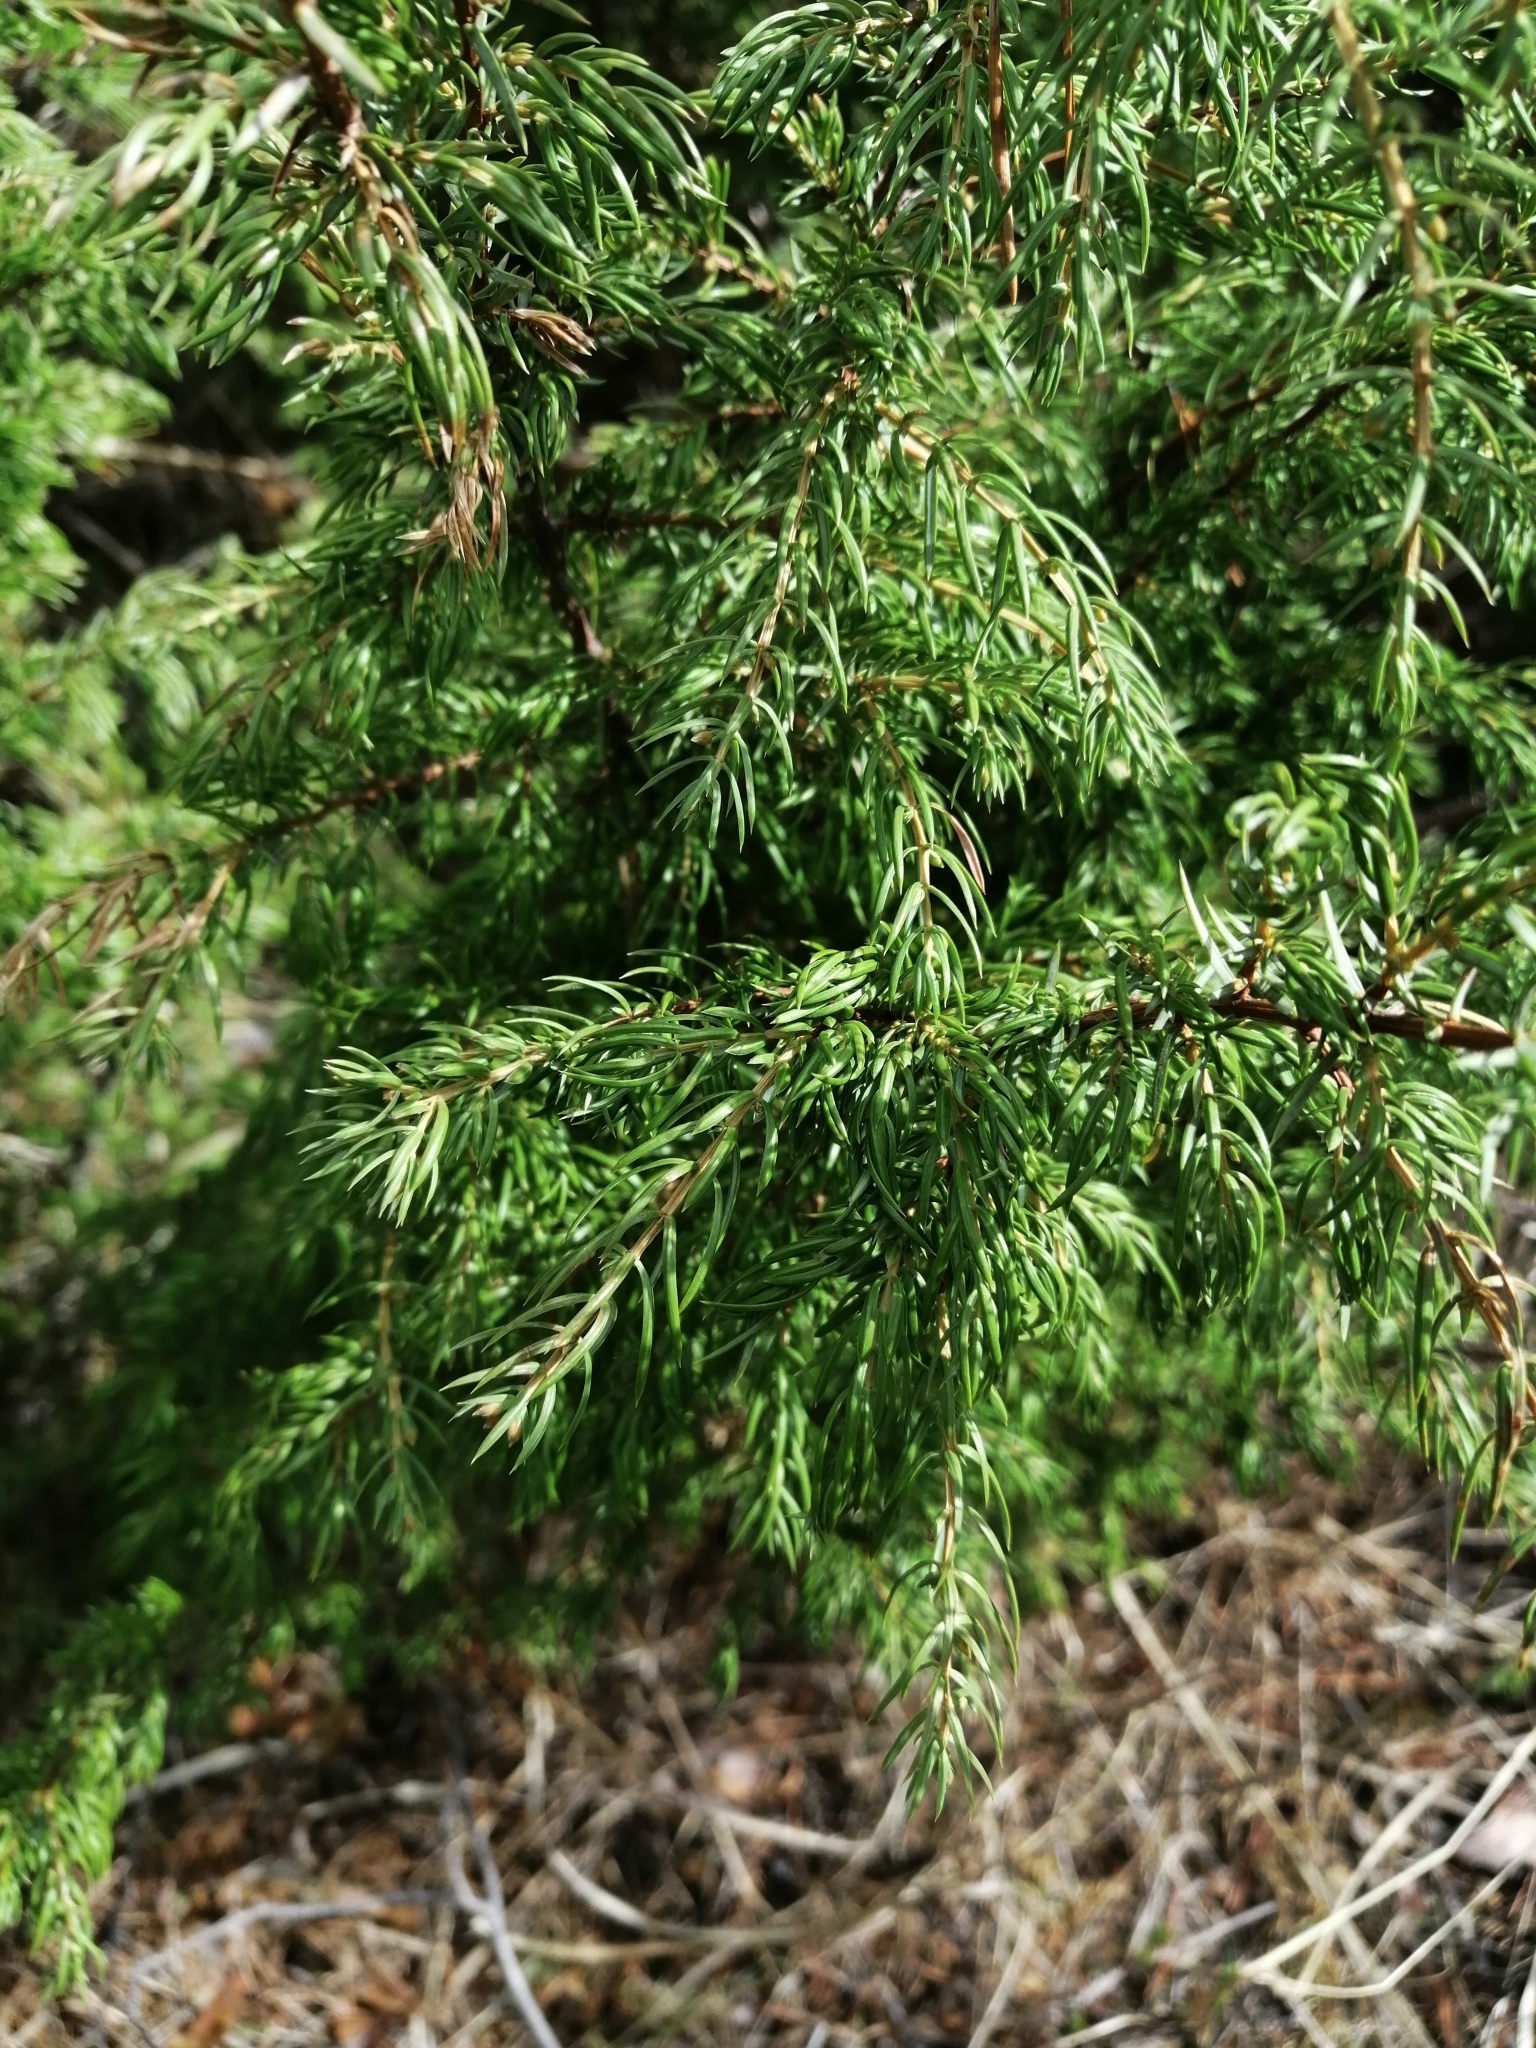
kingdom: Plantae
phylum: Tracheophyta
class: Pinopsida
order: Pinales
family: Cupressaceae
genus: Juniperus
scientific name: Juniperus communis
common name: Common juniper
